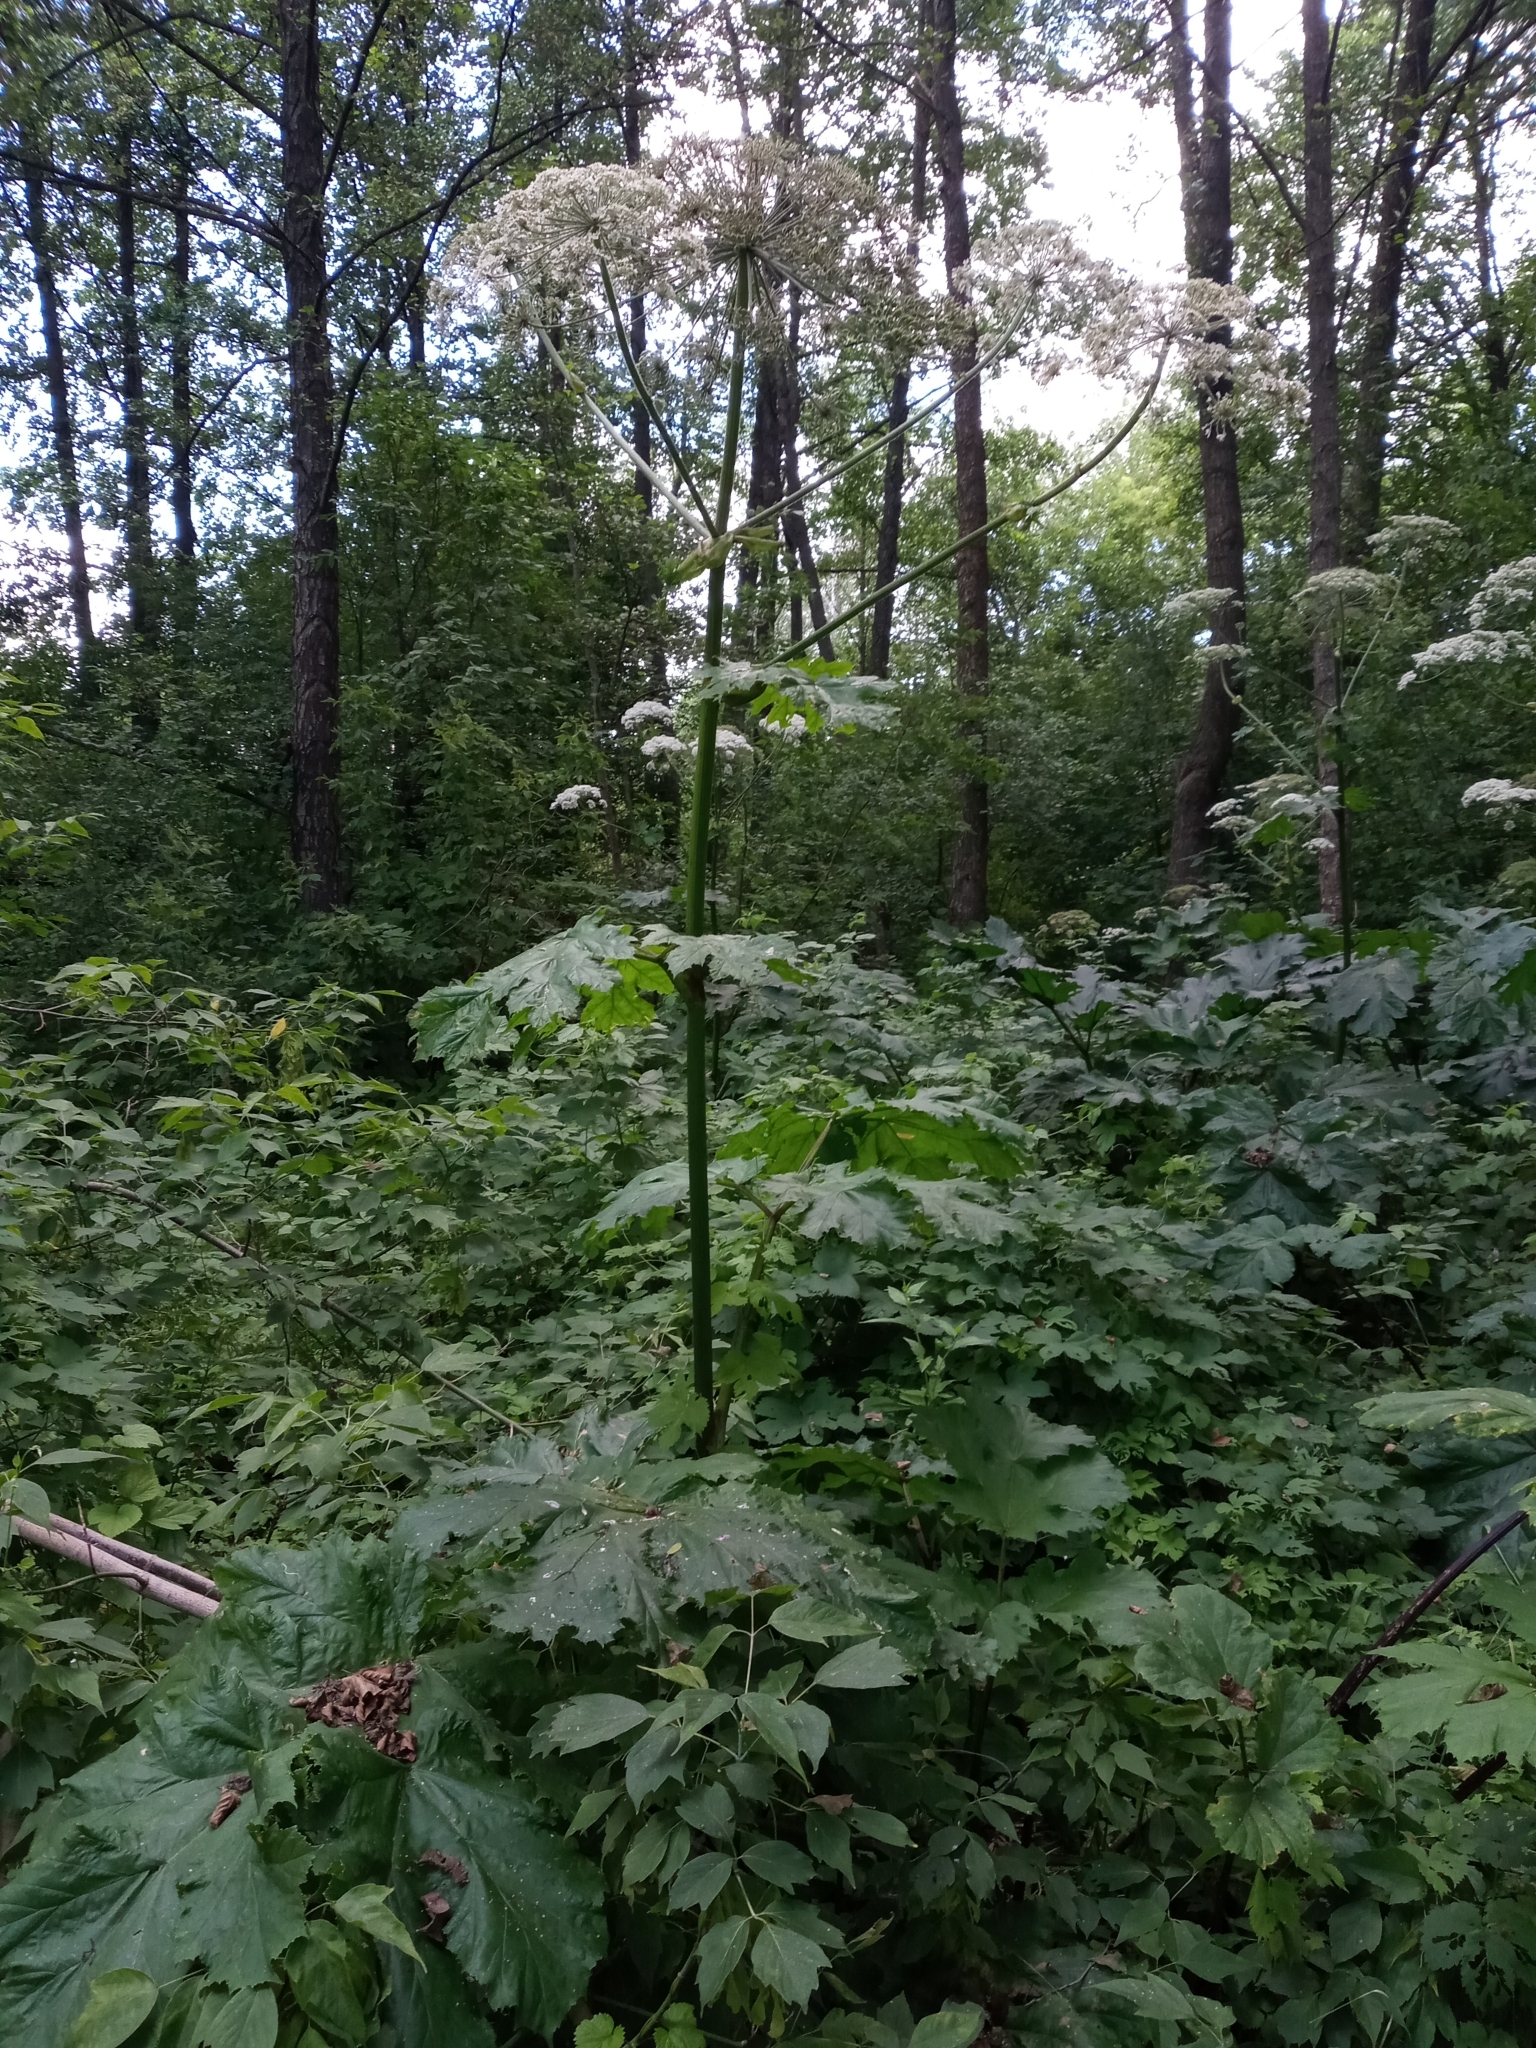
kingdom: Plantae
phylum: Tracheophyta
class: Magnoliopsida
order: Apiales
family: Apiaceae
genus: Heracleum
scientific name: Heracleum sosnowskyi
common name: Sosnowsky's hogweed
